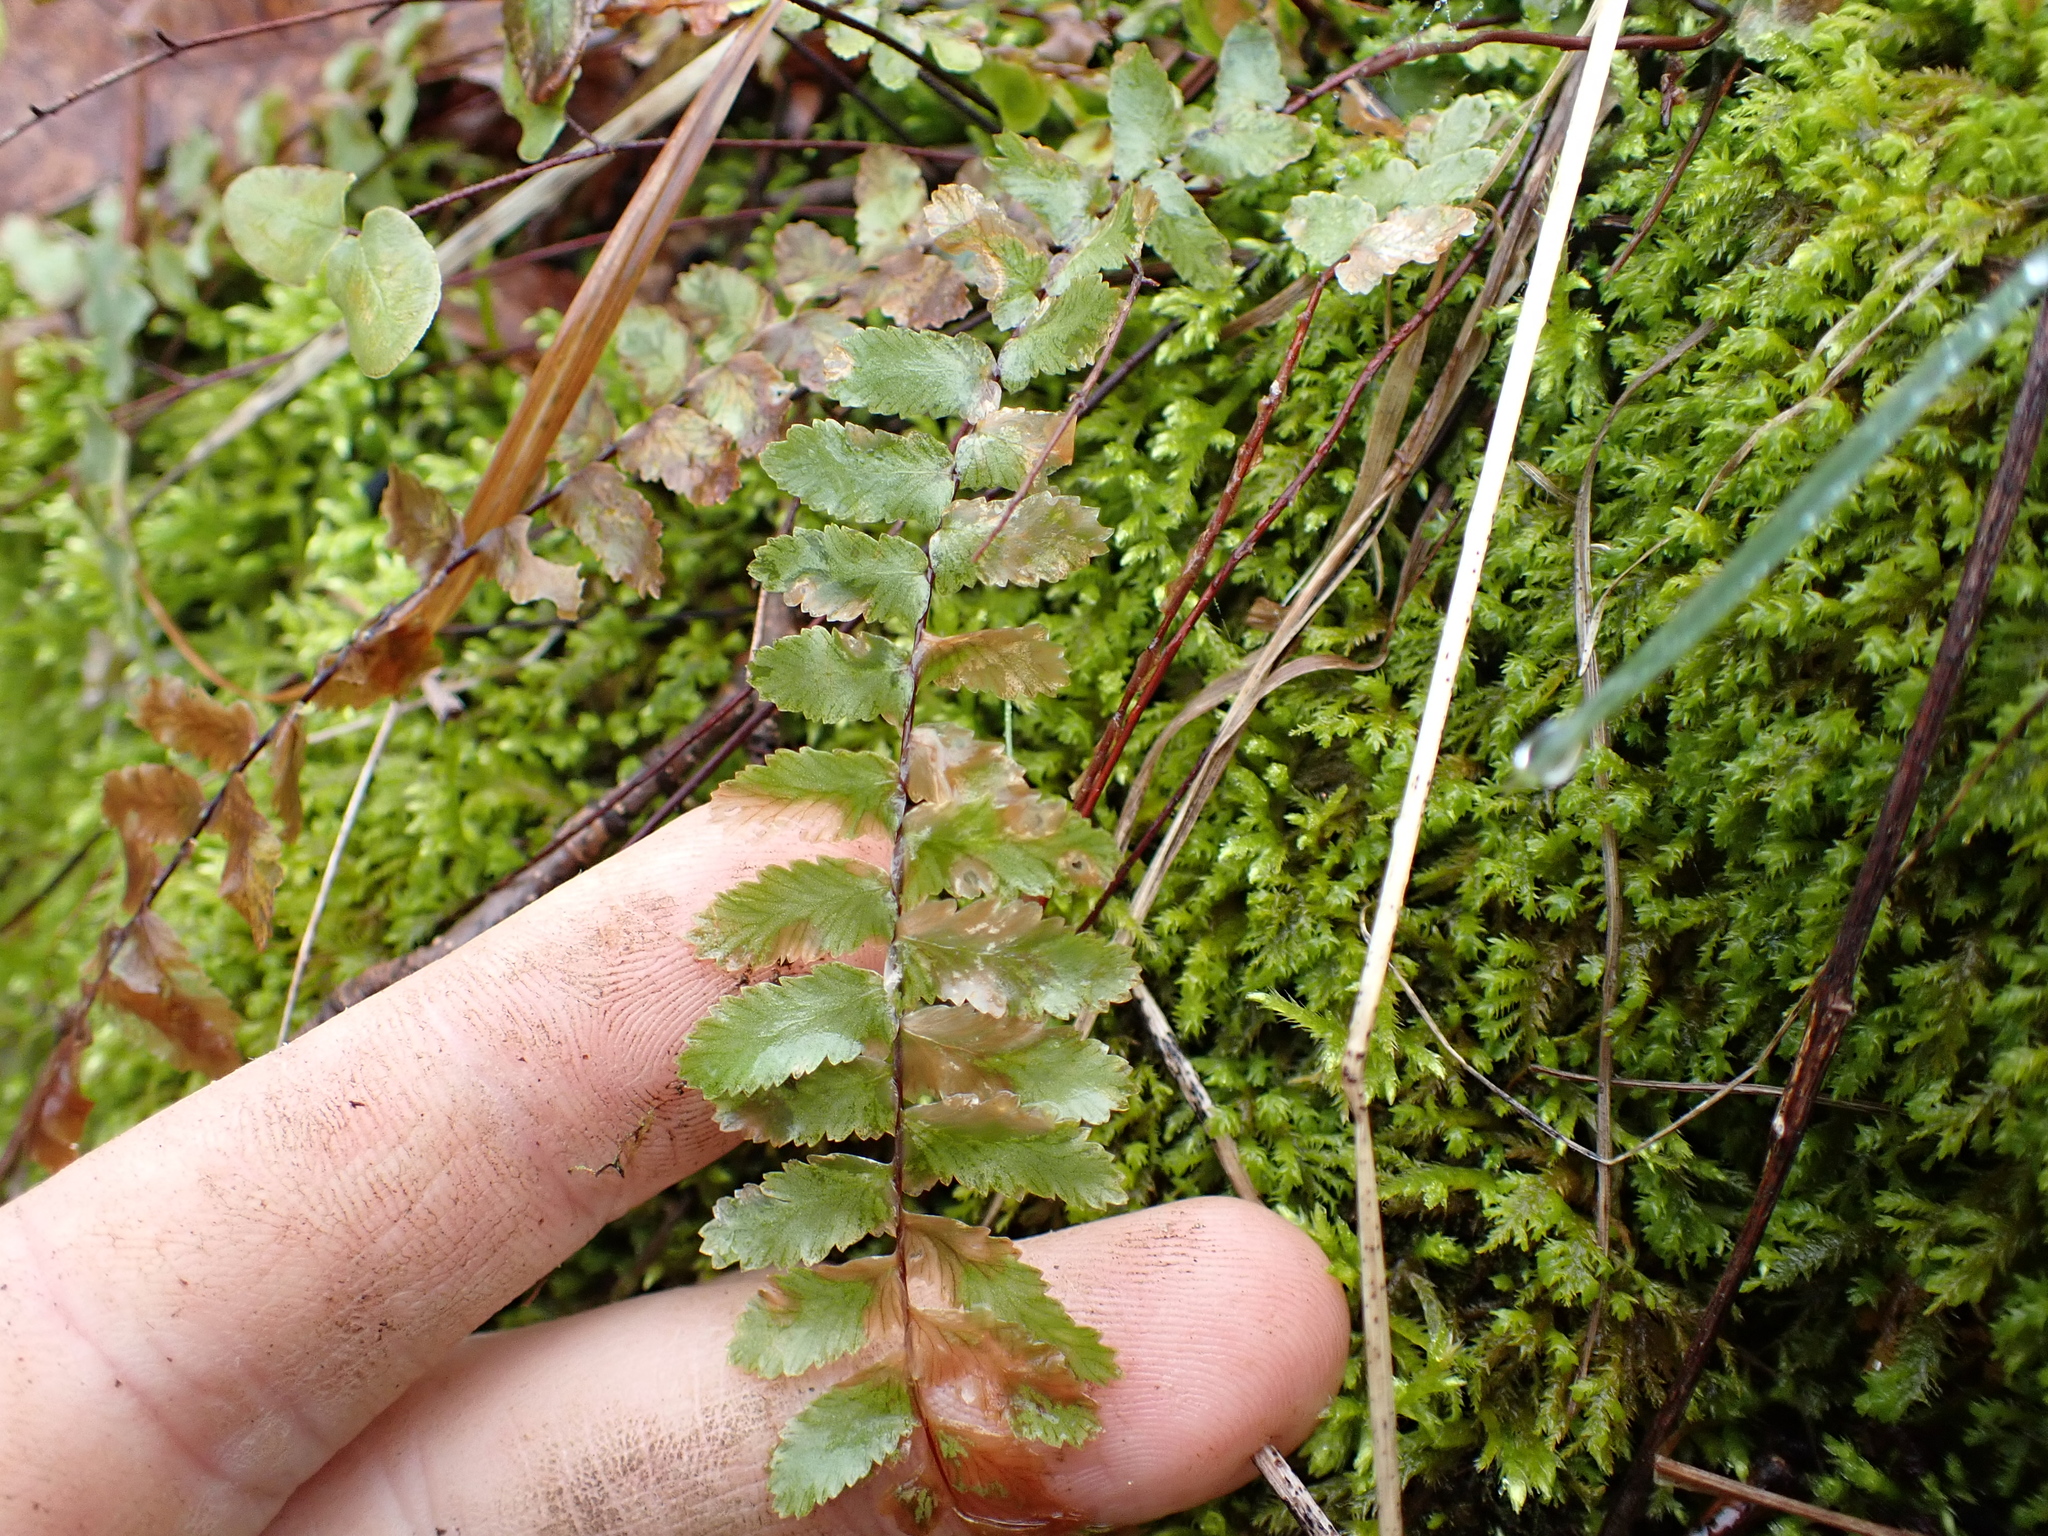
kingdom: Plantae
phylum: Tracheophyta
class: Polypodiopsida
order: Polypodiales
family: Aspleniaceae
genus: Asplenium
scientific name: Asplenium platyneuron
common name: Ebony spleenwort
